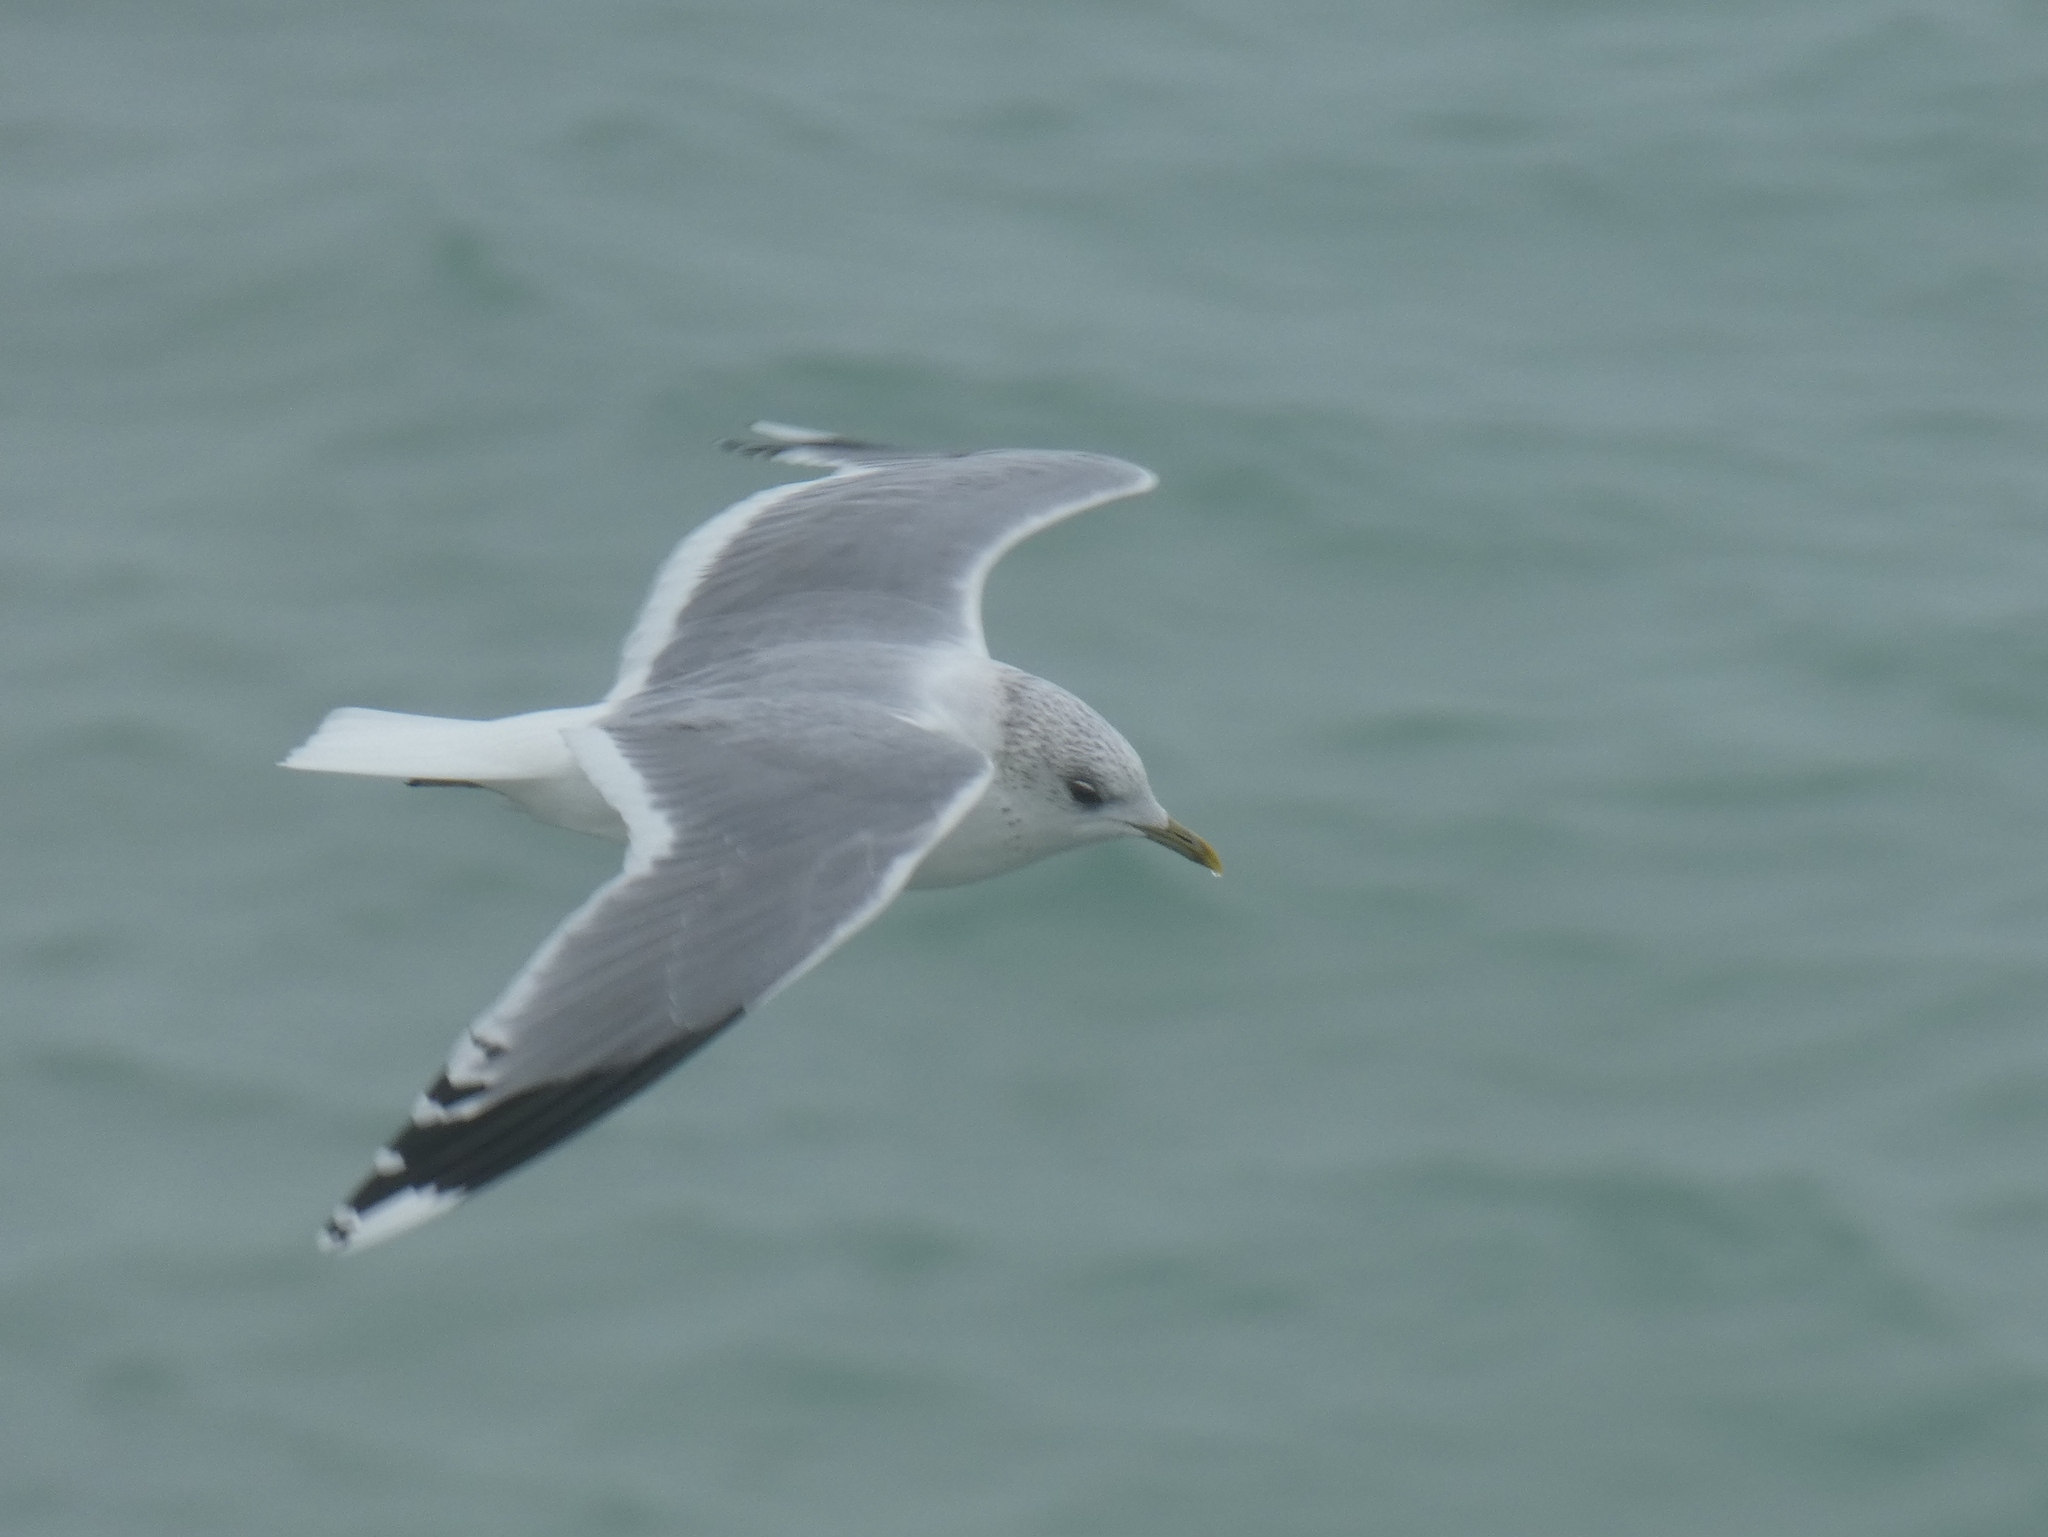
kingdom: Animalia
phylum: Chordata
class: Aves
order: Charadriiformes
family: Laridae
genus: Larus
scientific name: Larus canus
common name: Mew gull
